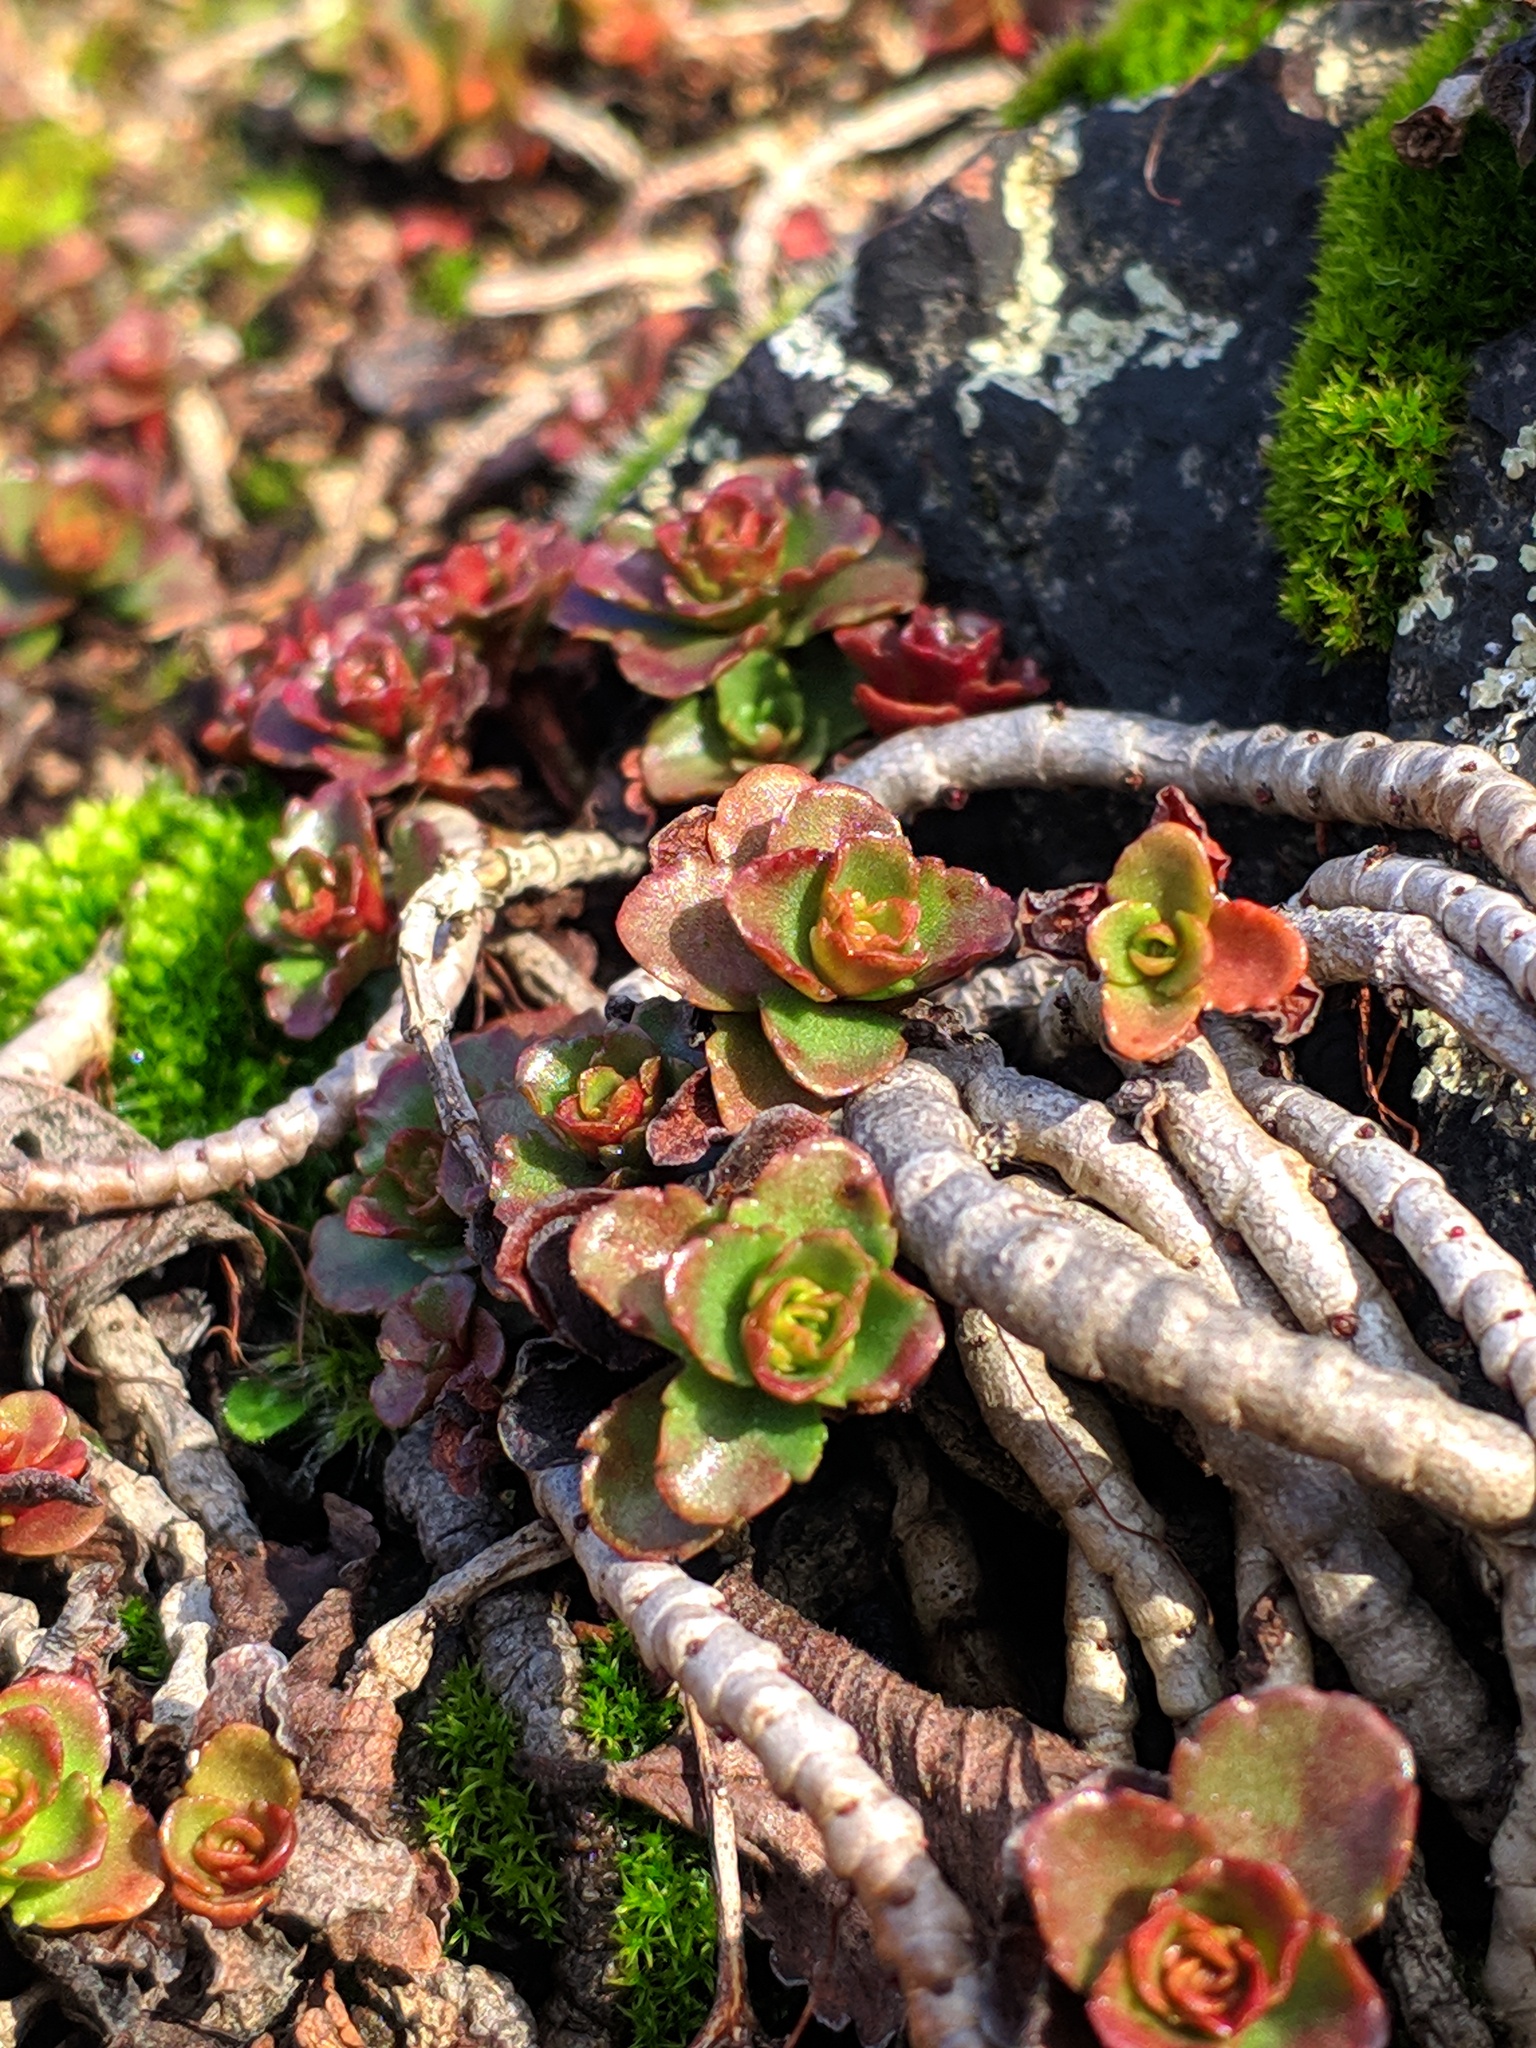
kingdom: Plantae
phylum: Tracheophyta
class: Magnoliopsida
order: Saxifragales
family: Crassulaceae
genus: Phedimus
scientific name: Phedimus spurius
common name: Caucasian stonecrop
